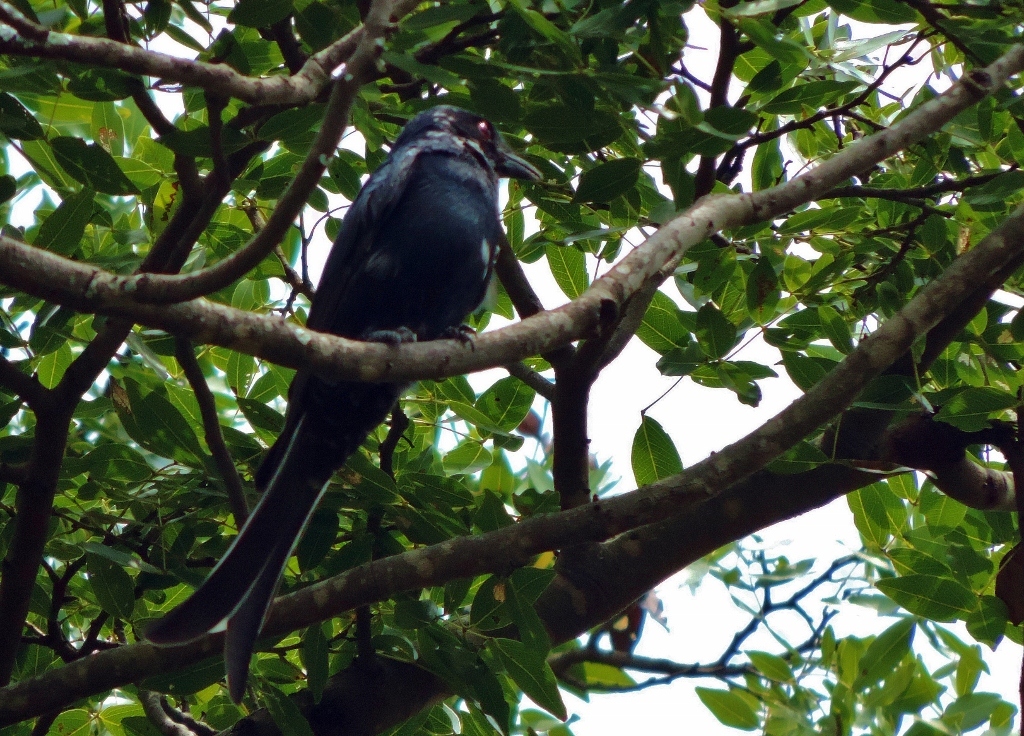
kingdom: Animalia
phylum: Chordata
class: Aves
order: Passeriformes
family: Dicruridae
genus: Dicrurus
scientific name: Dicrurus adsimilis
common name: Fork-tailed drongo
